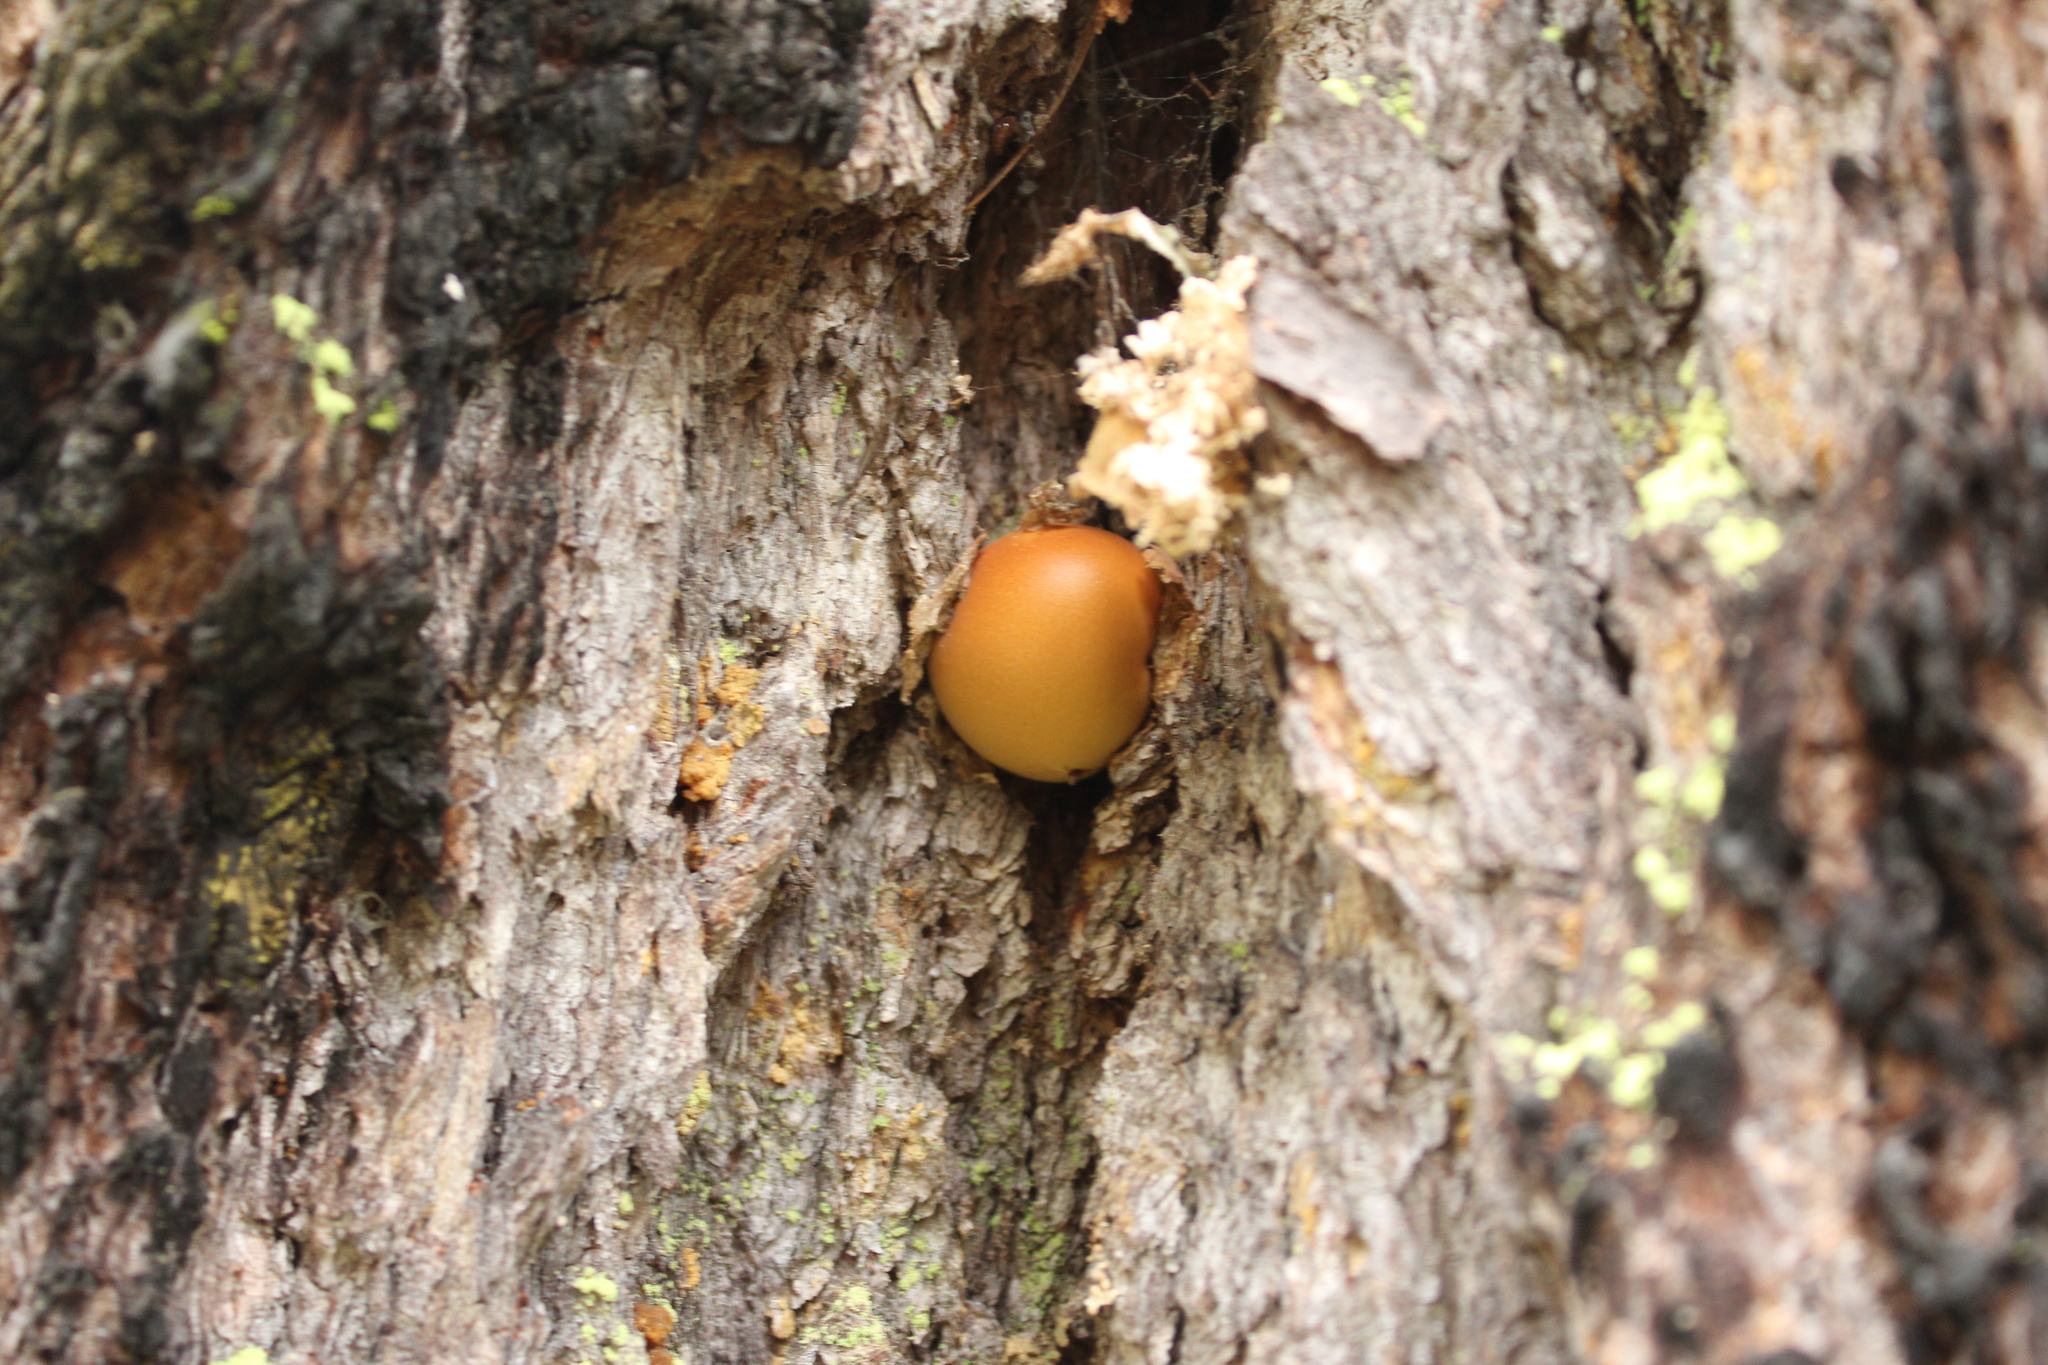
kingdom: Fungi
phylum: Basidiomycota
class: Agaricomycetes
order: Polyporales
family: Polyporaceae
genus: Cryptoporus
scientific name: Cryptoporus volvatus
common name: Veiled polypore
